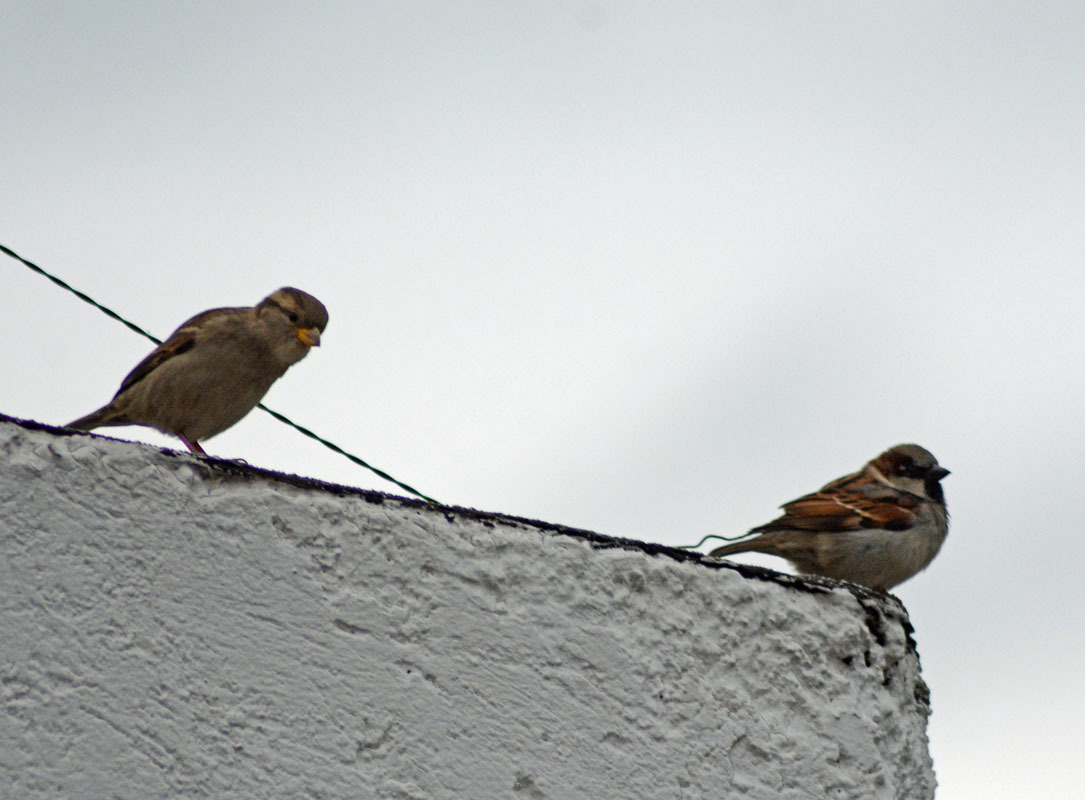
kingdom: Animalia
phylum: Chordata
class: Aves
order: Passeriformes
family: Passeridae
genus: Passer
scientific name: Passer domesticus
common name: House sparrow
